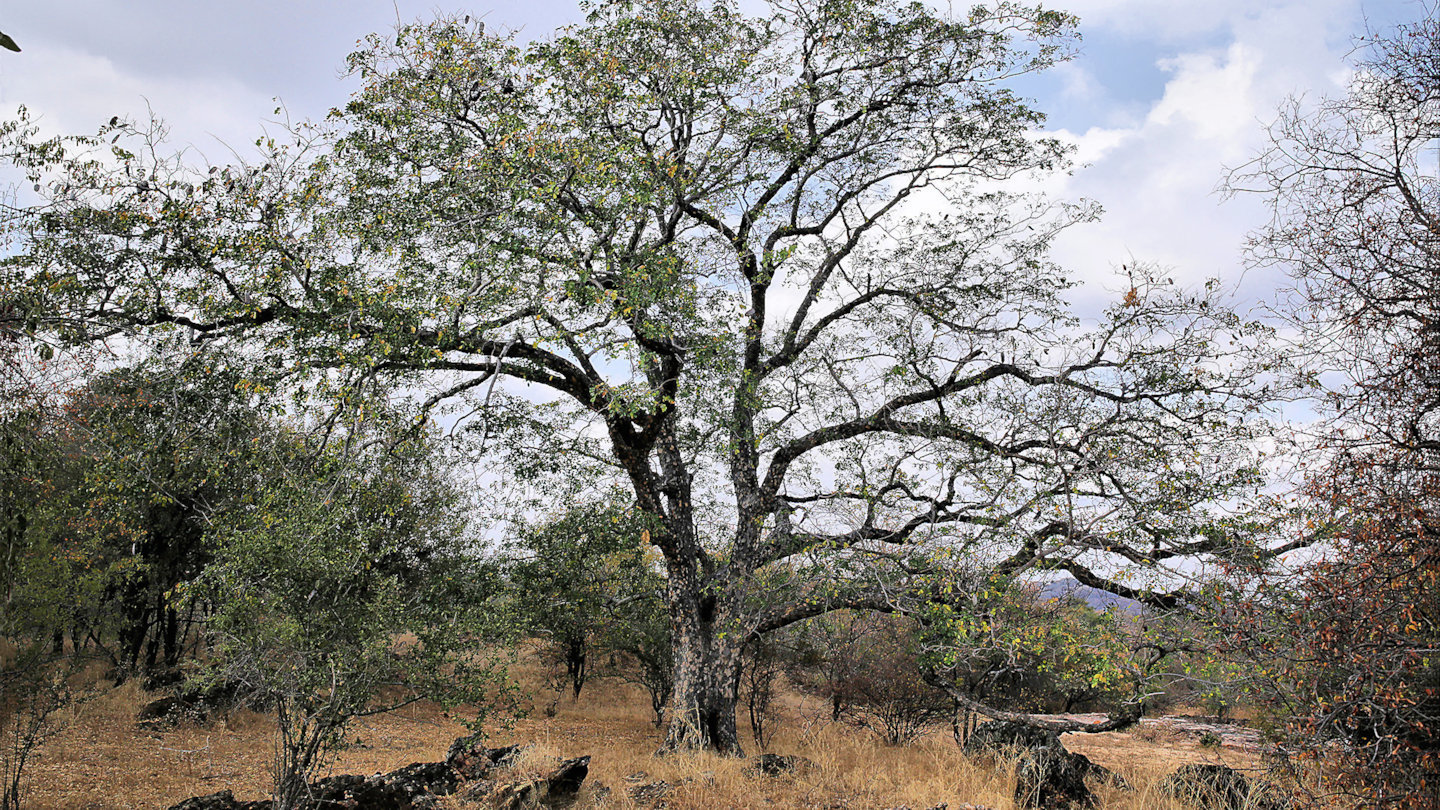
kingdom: Plantae
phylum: Tracheophyta
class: Magnoliopsida
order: Fabales
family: Fabaceae
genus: Afzelia
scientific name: Afzelia quanzensis
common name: Pod mahogany
